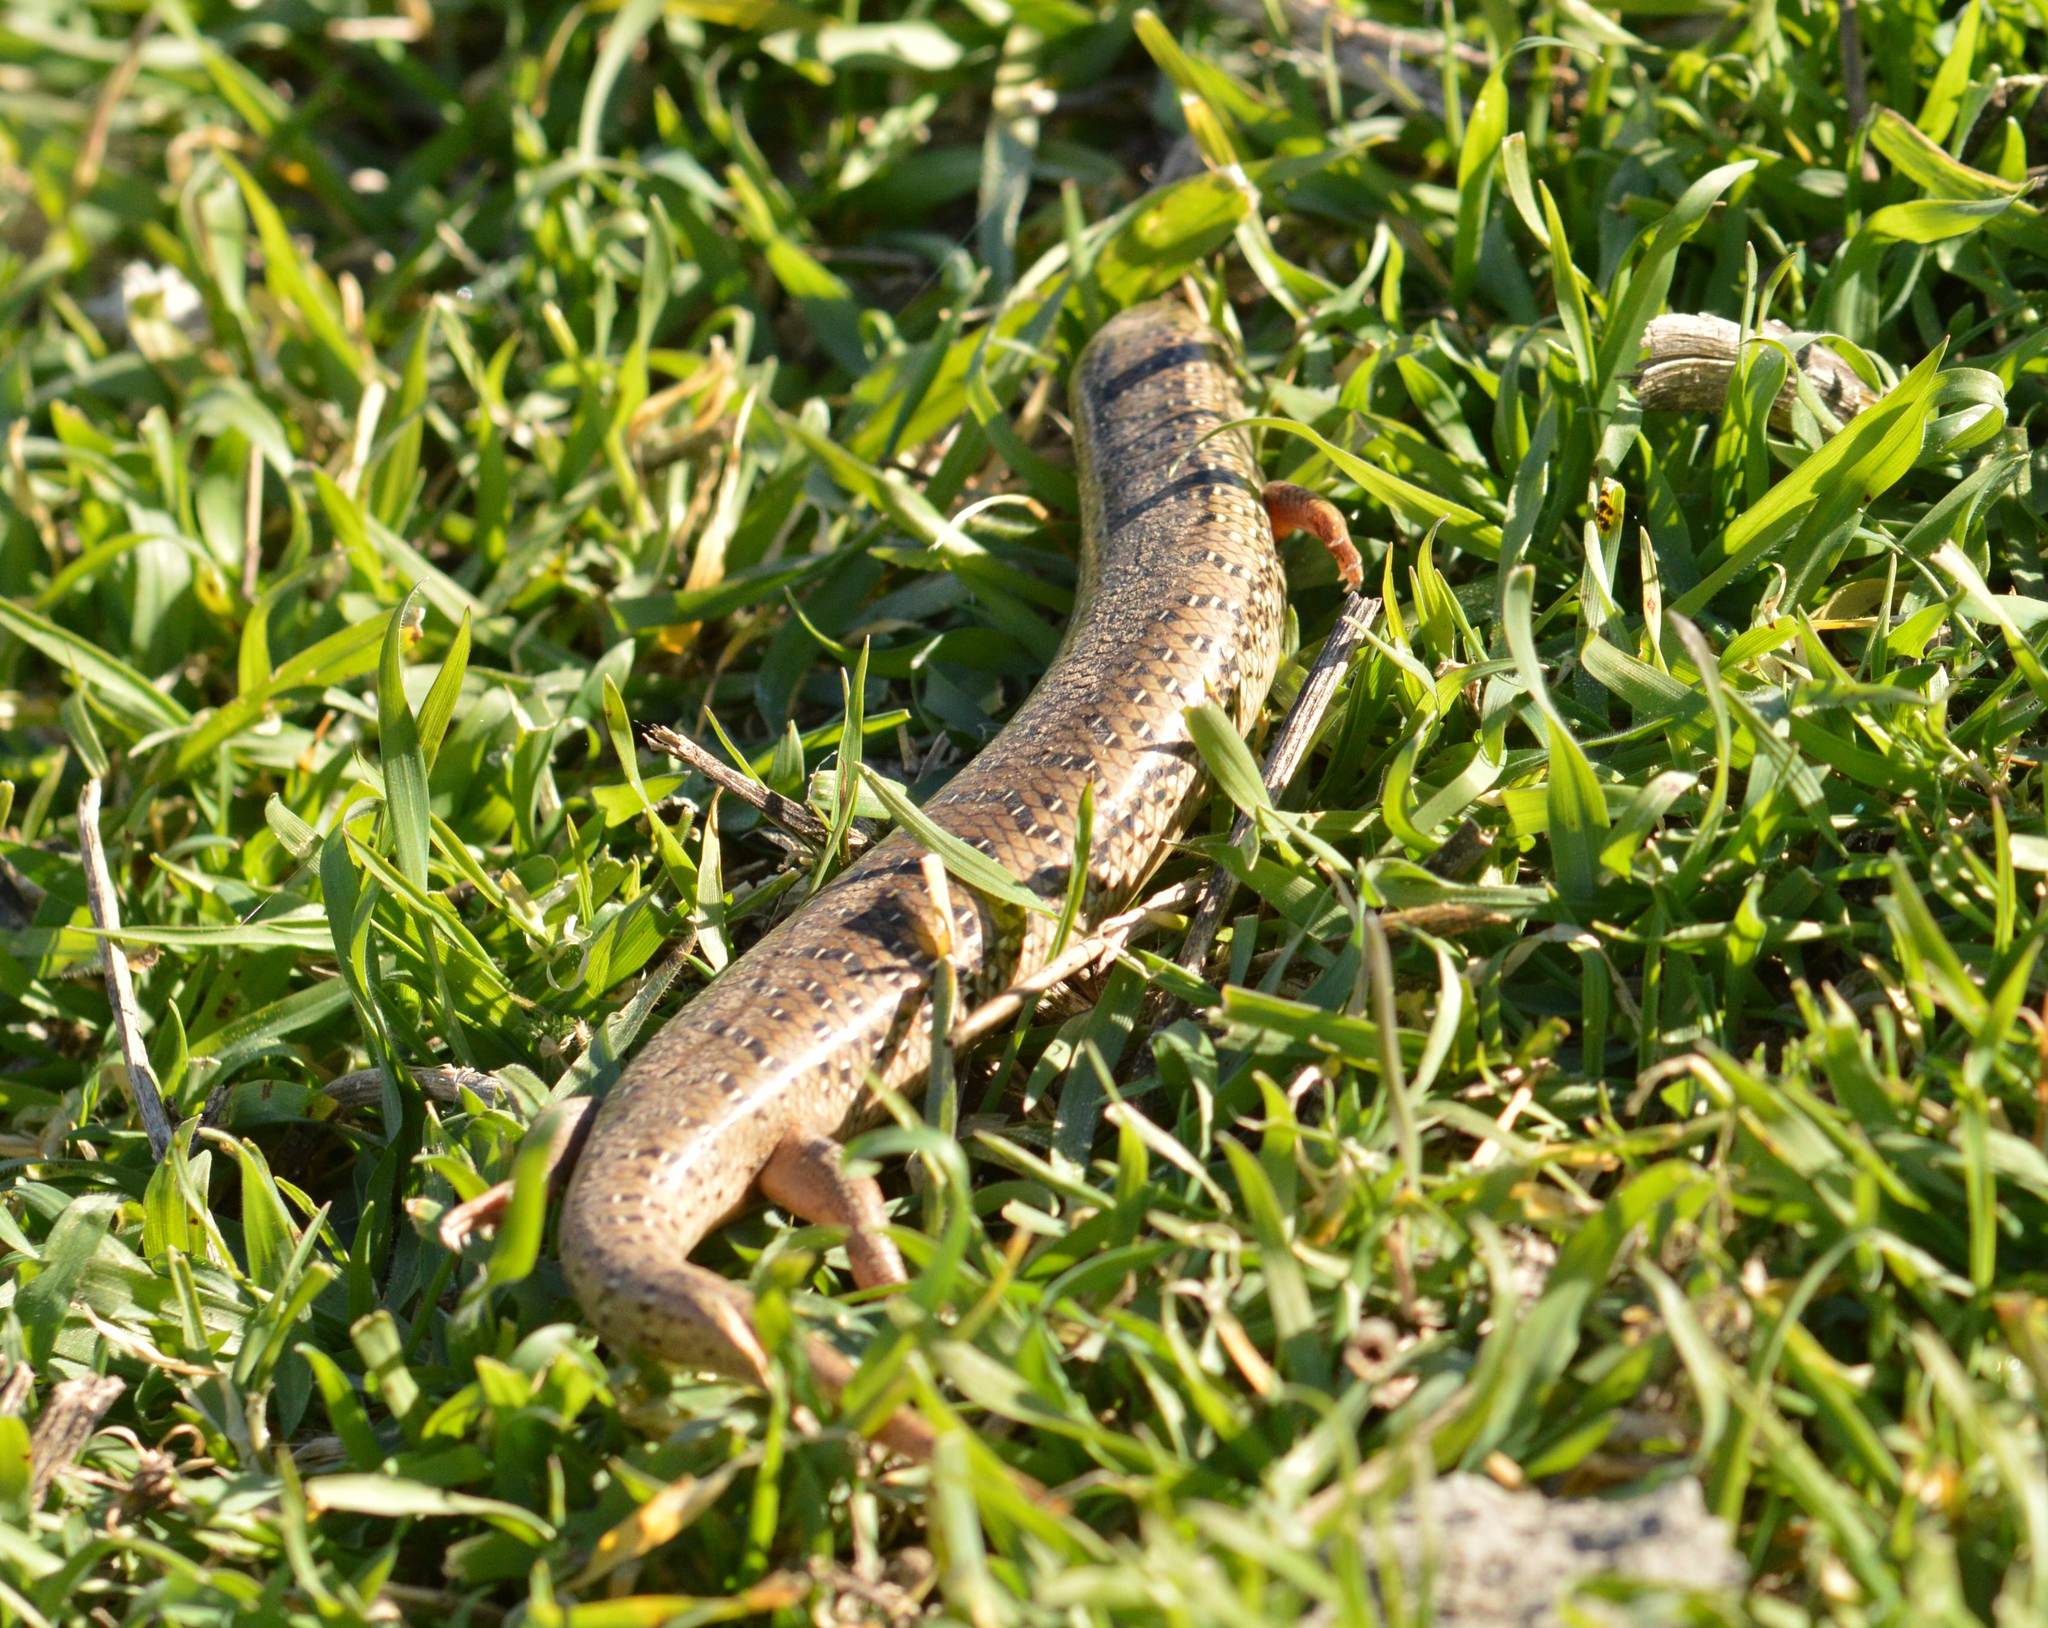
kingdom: Animalia
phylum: Chordata
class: Squamata
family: Scincidae
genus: Chalcides
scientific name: Chalcides ocellatus
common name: Ocellated skink
